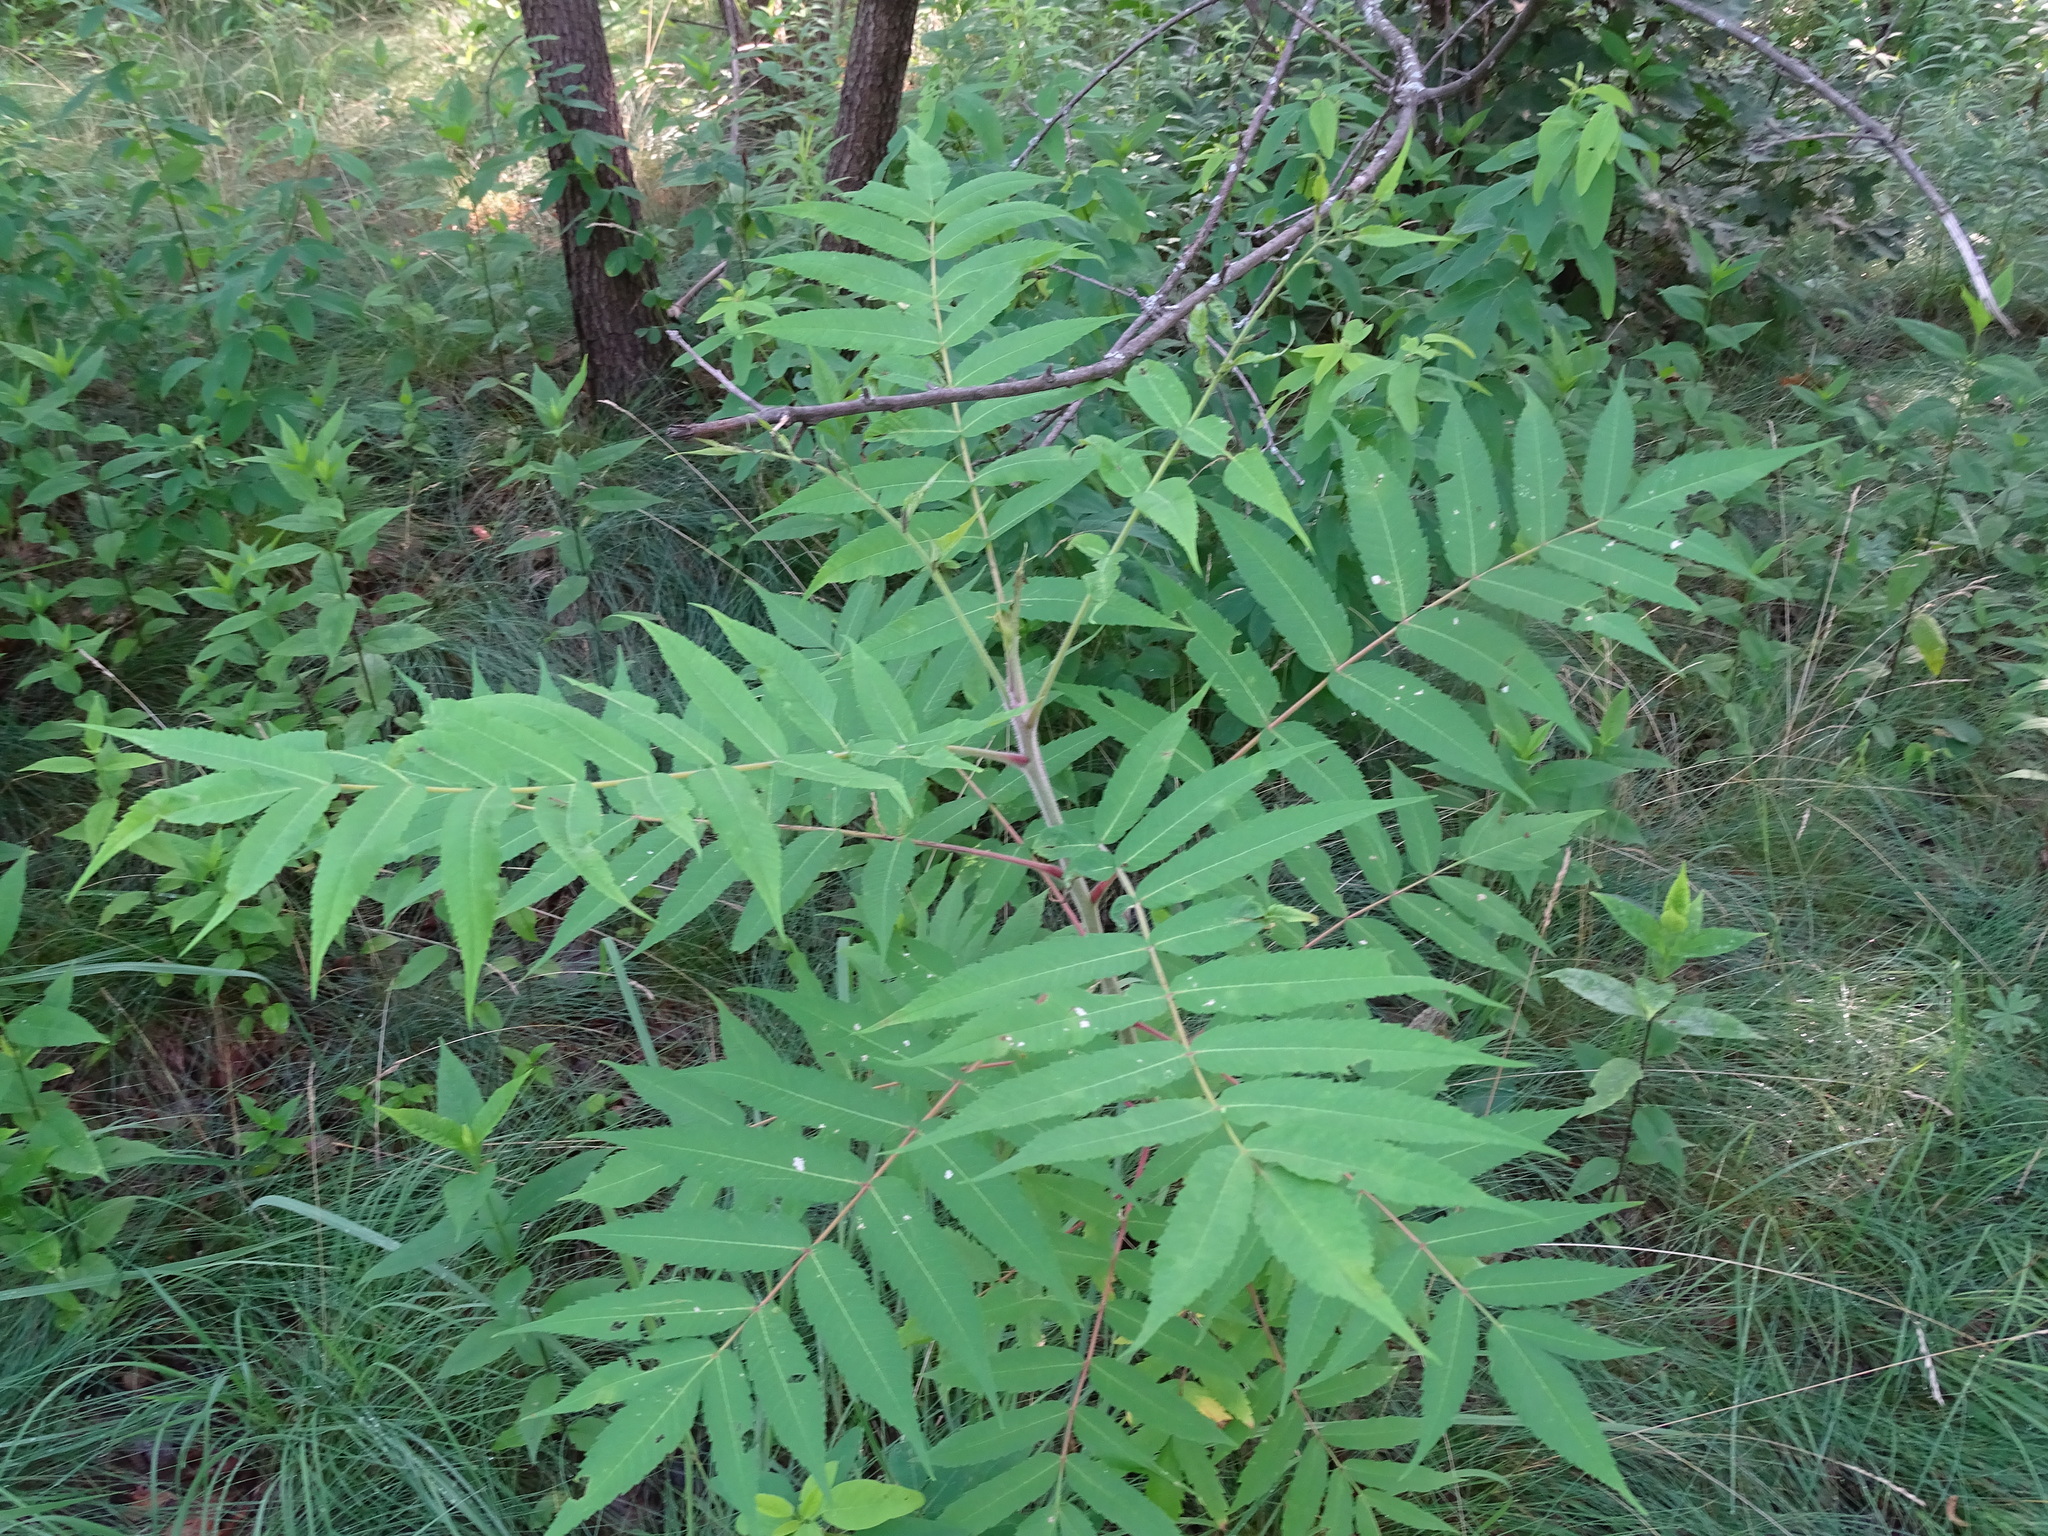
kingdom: Plantae
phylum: Tracheophyta
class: Magnoliopsida
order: Sapindales
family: Anacardiaceae
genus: Rhus
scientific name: Rhus typhina
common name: Staghorn sumac
